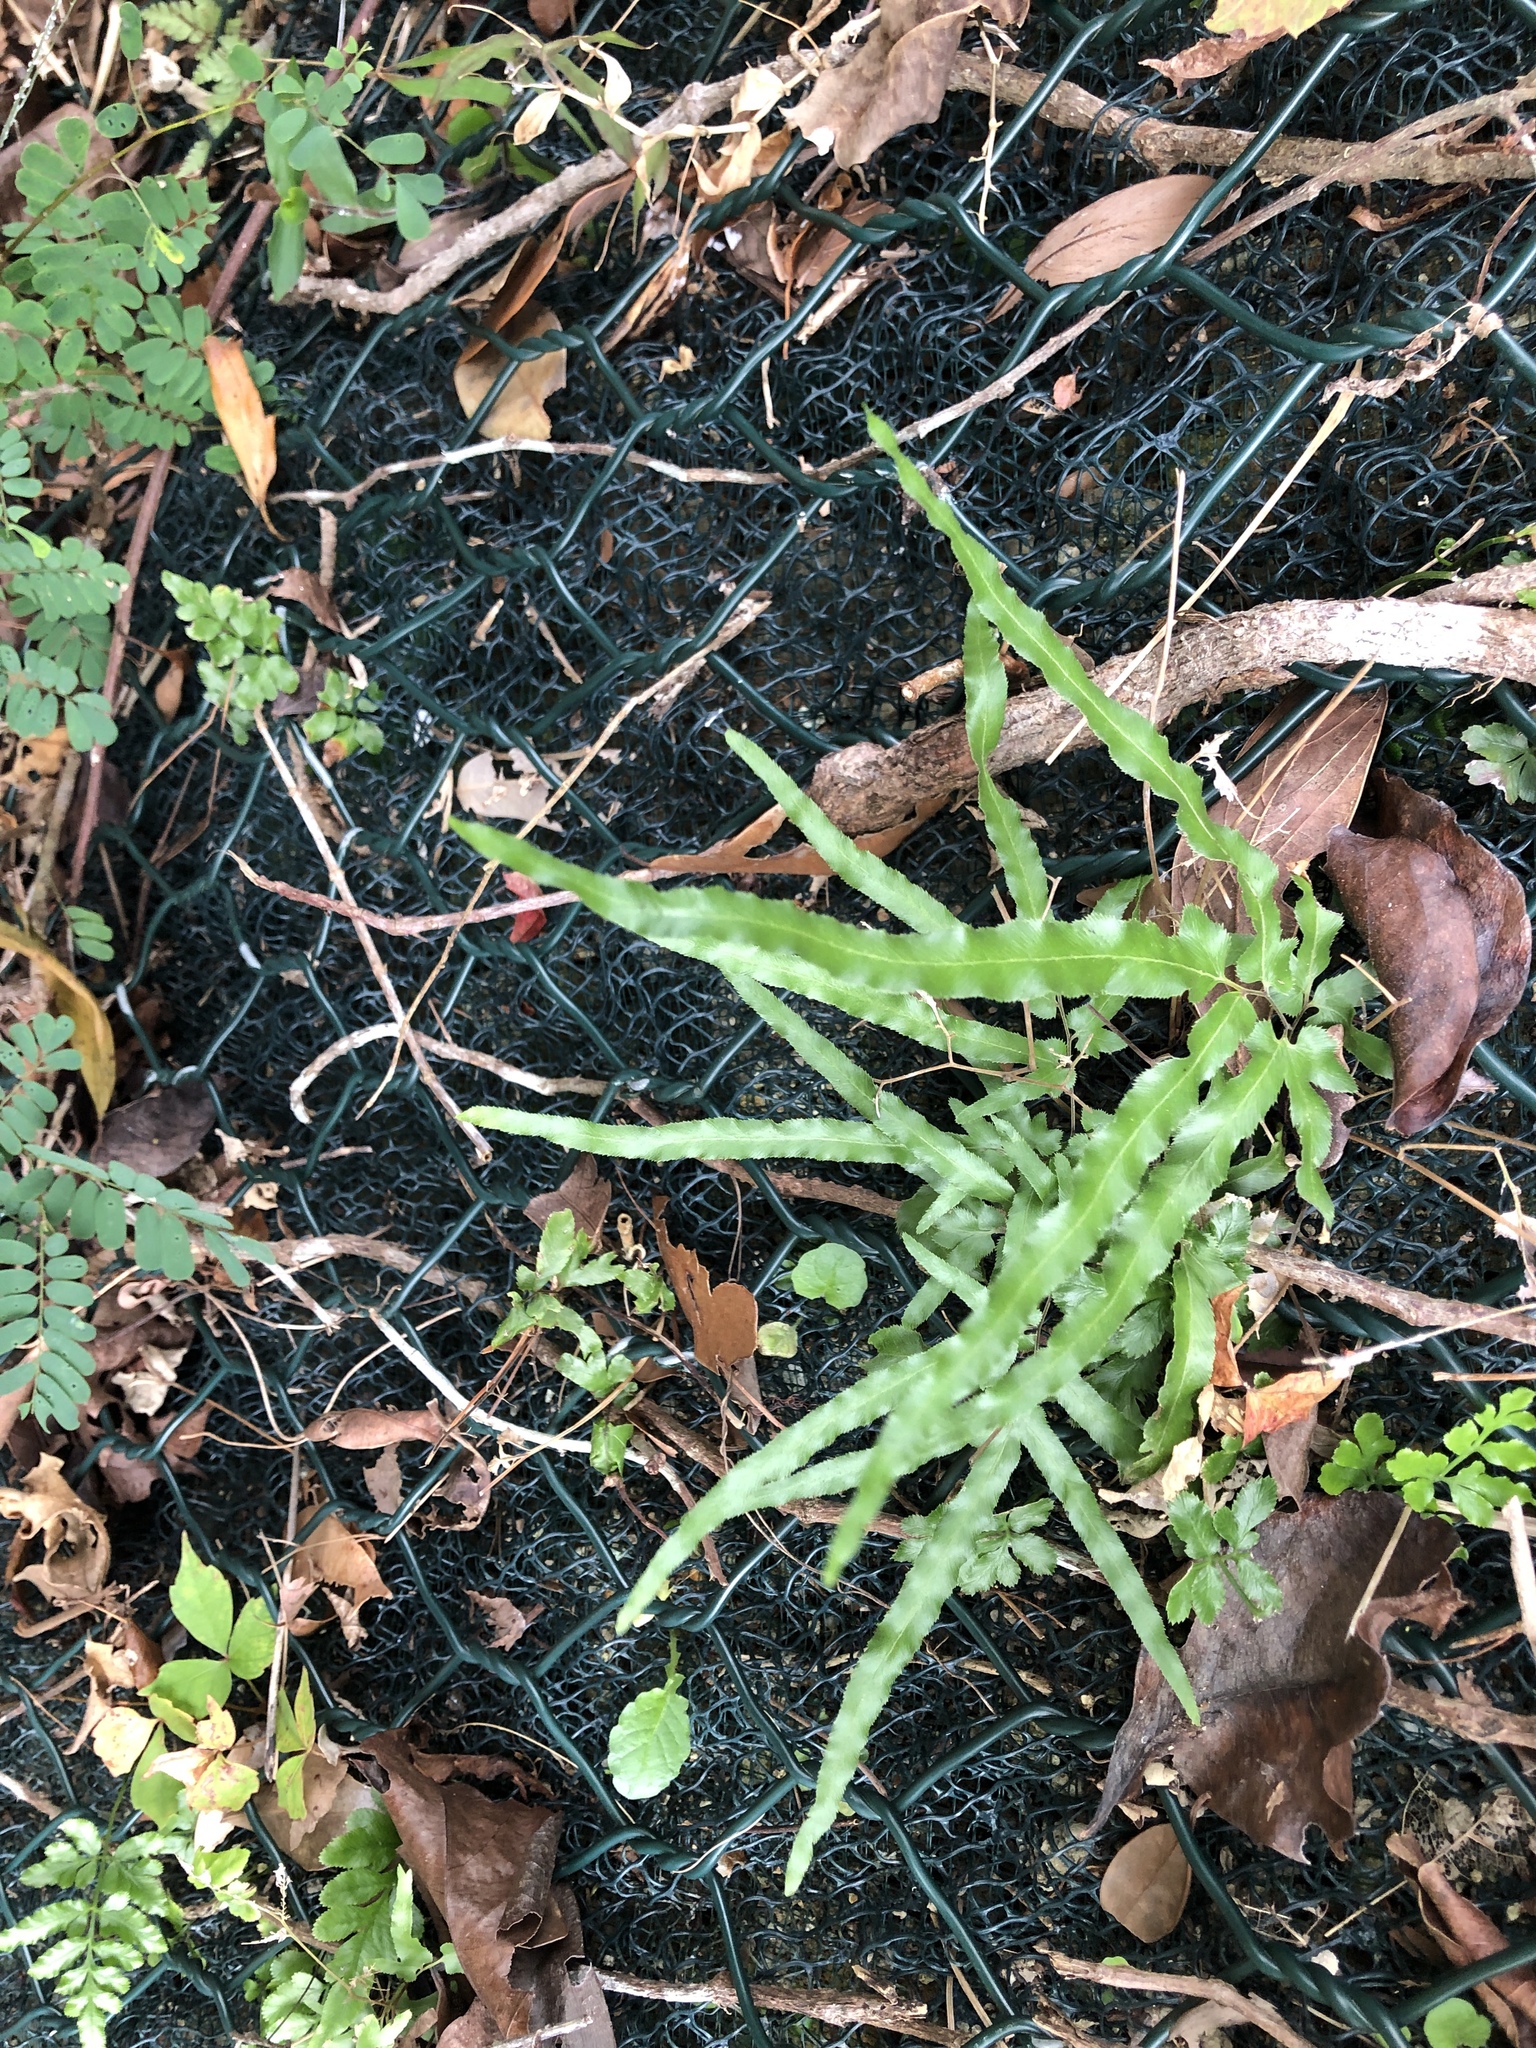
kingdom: Plantae
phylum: Tracheophyta
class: Polypodiopsida
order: Schizaeales
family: Lygodiaceae
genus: Lygodium
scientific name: Lygodium japonicum
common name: Japanese climbing fern
